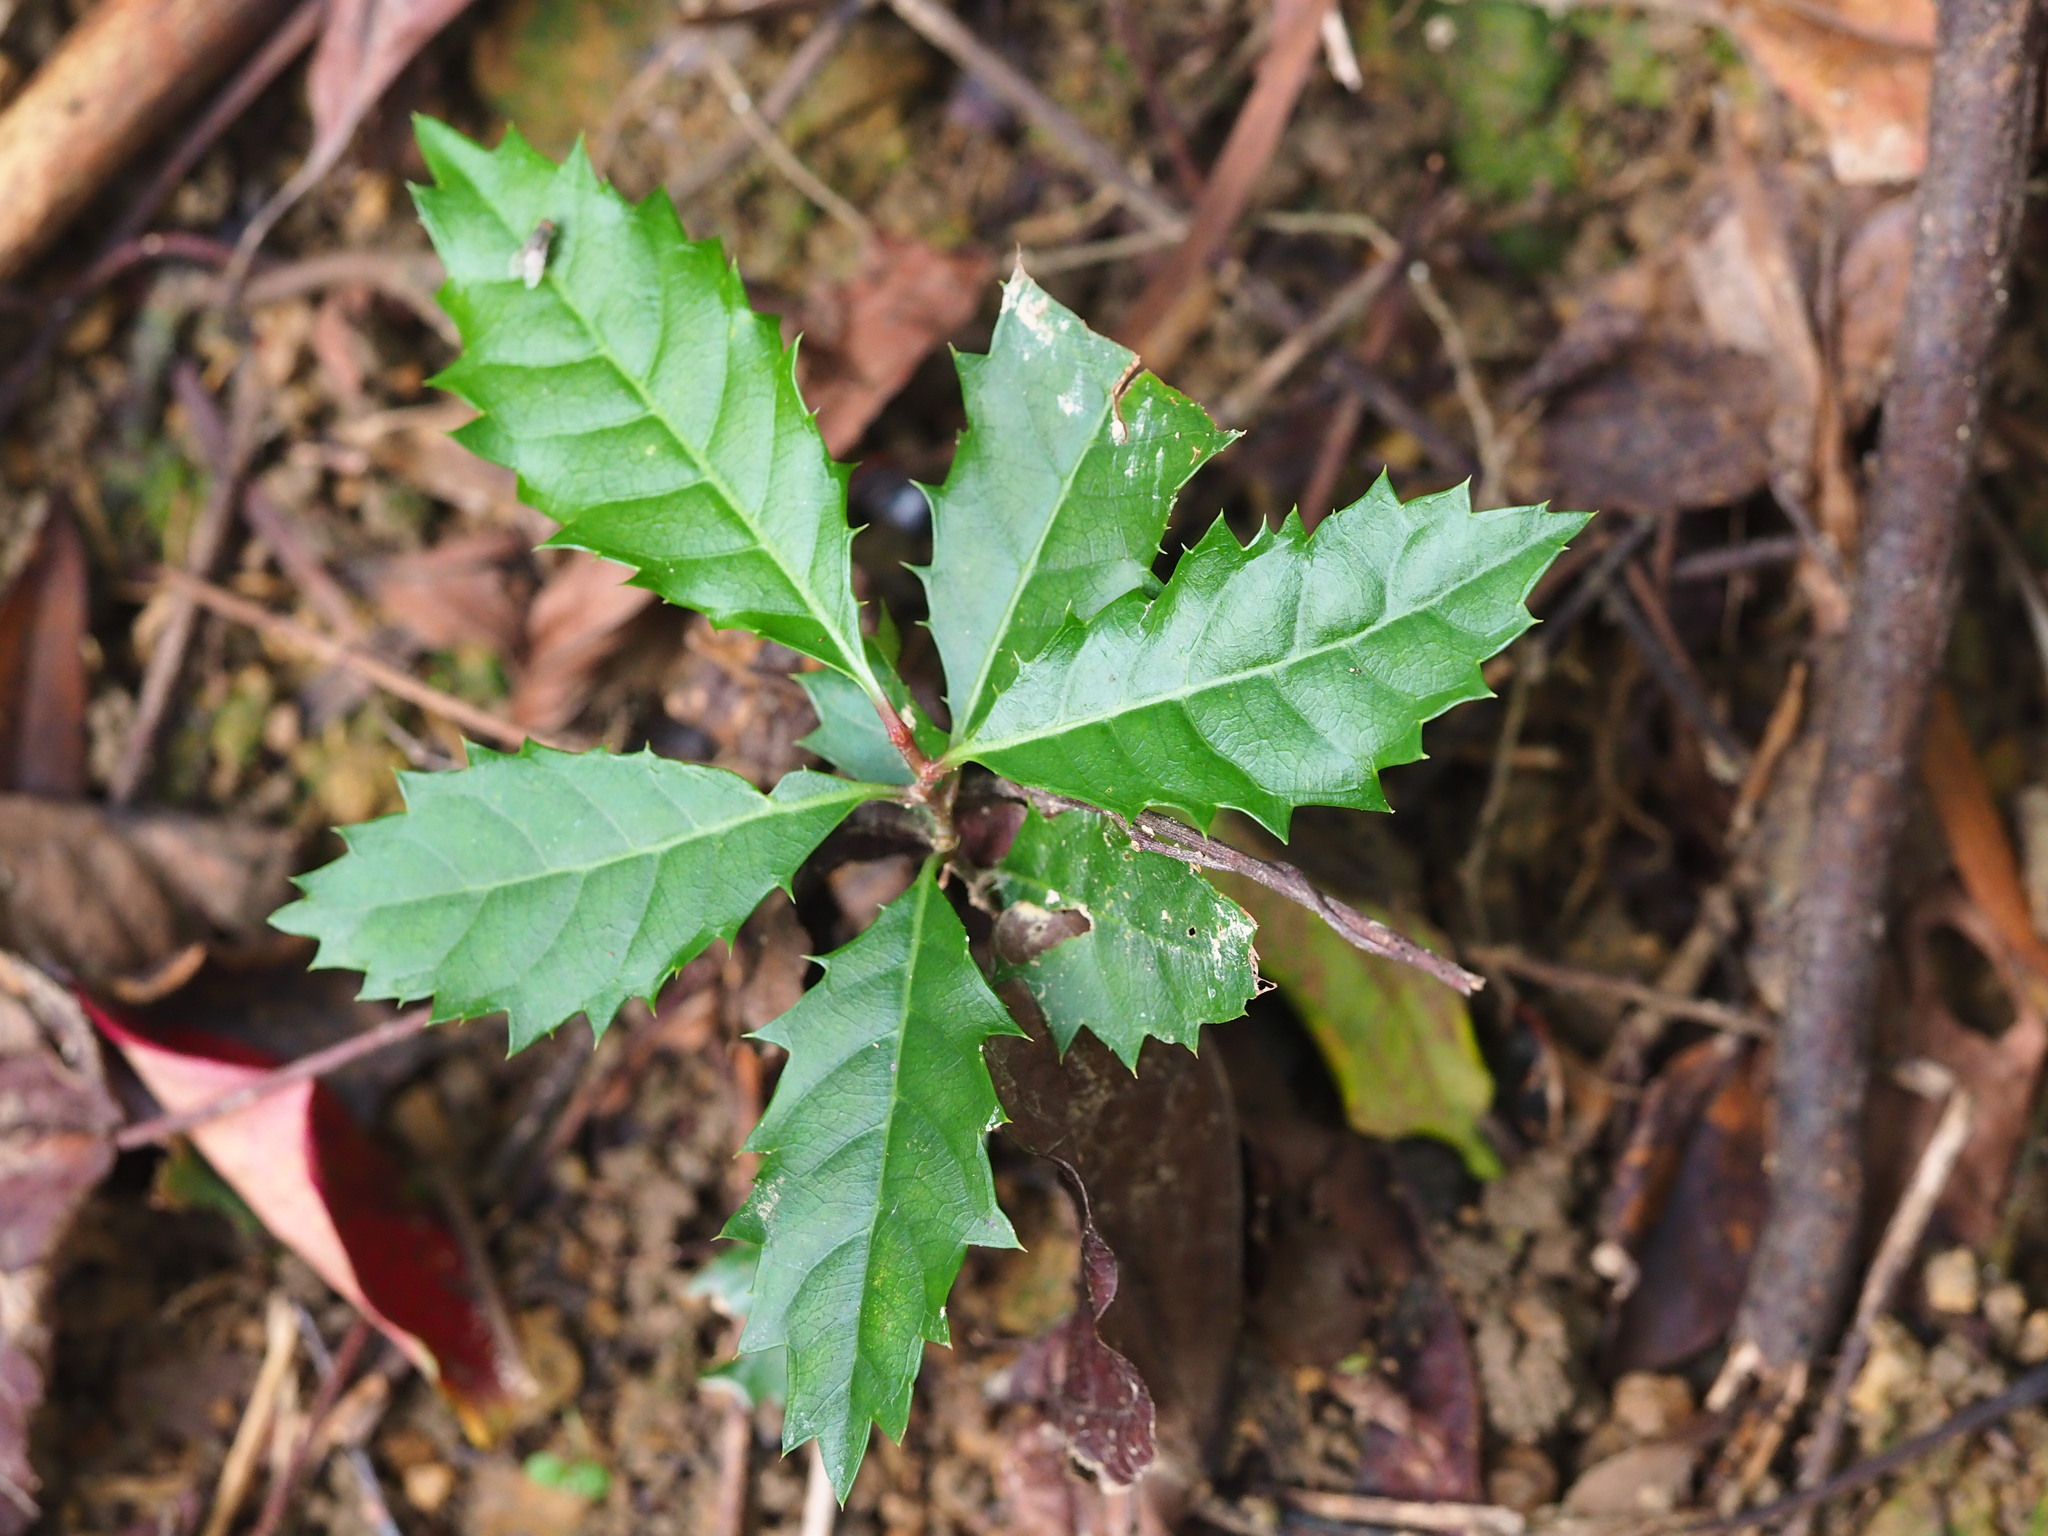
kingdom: Plantae
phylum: Tracheophyta
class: Magnoliopsida
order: Saxifragales
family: Iteaceae
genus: Itea
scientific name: Itea oldhamii
